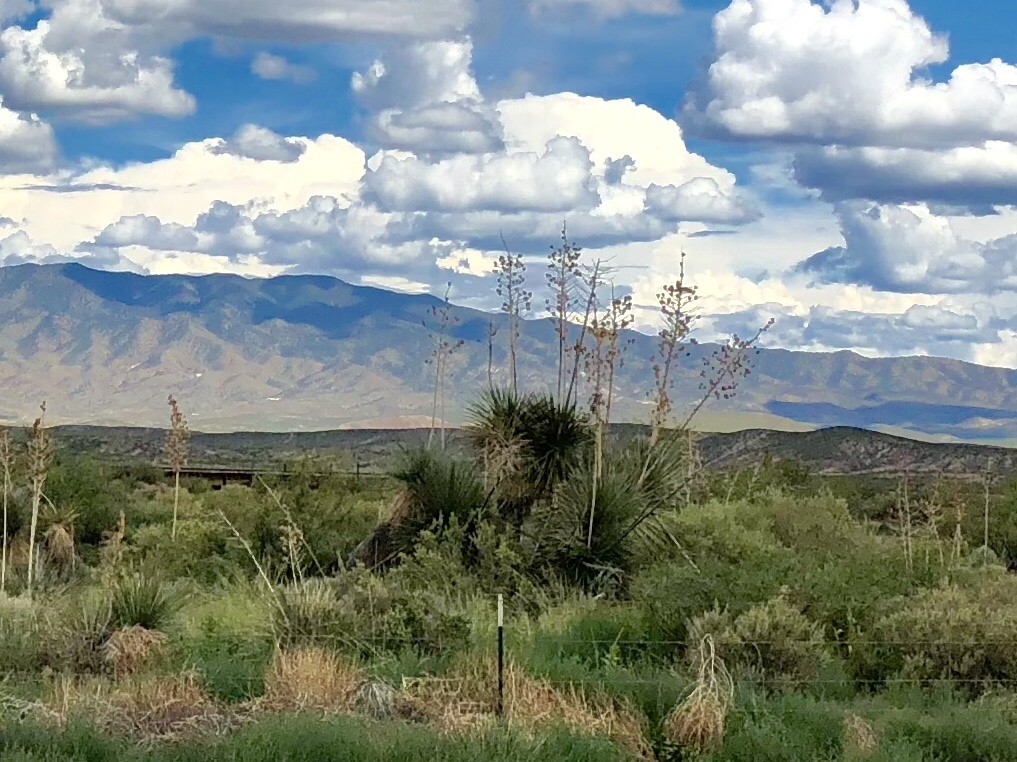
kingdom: Plantae
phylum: Tracheophyta
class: Liliopsida
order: Asparagales
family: Asparagaceae
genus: Yucca
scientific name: Yucca elata
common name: Palmella
